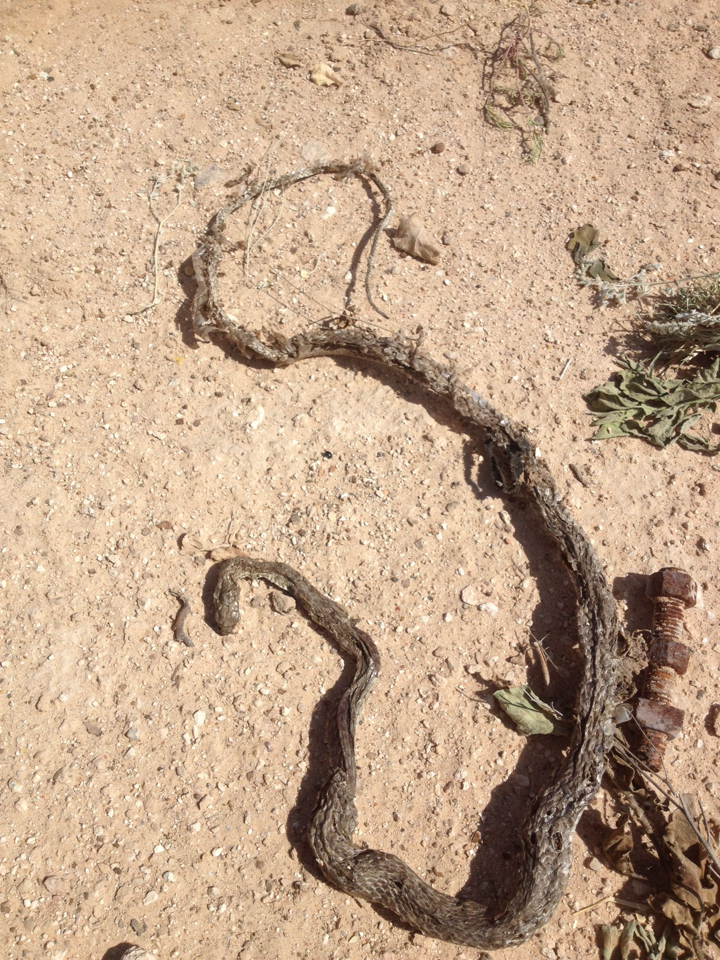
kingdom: Animalia
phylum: Chordata
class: Squamata
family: Colubridae
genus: Masticophis
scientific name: Masticophis flagellum
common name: Coachwhip
